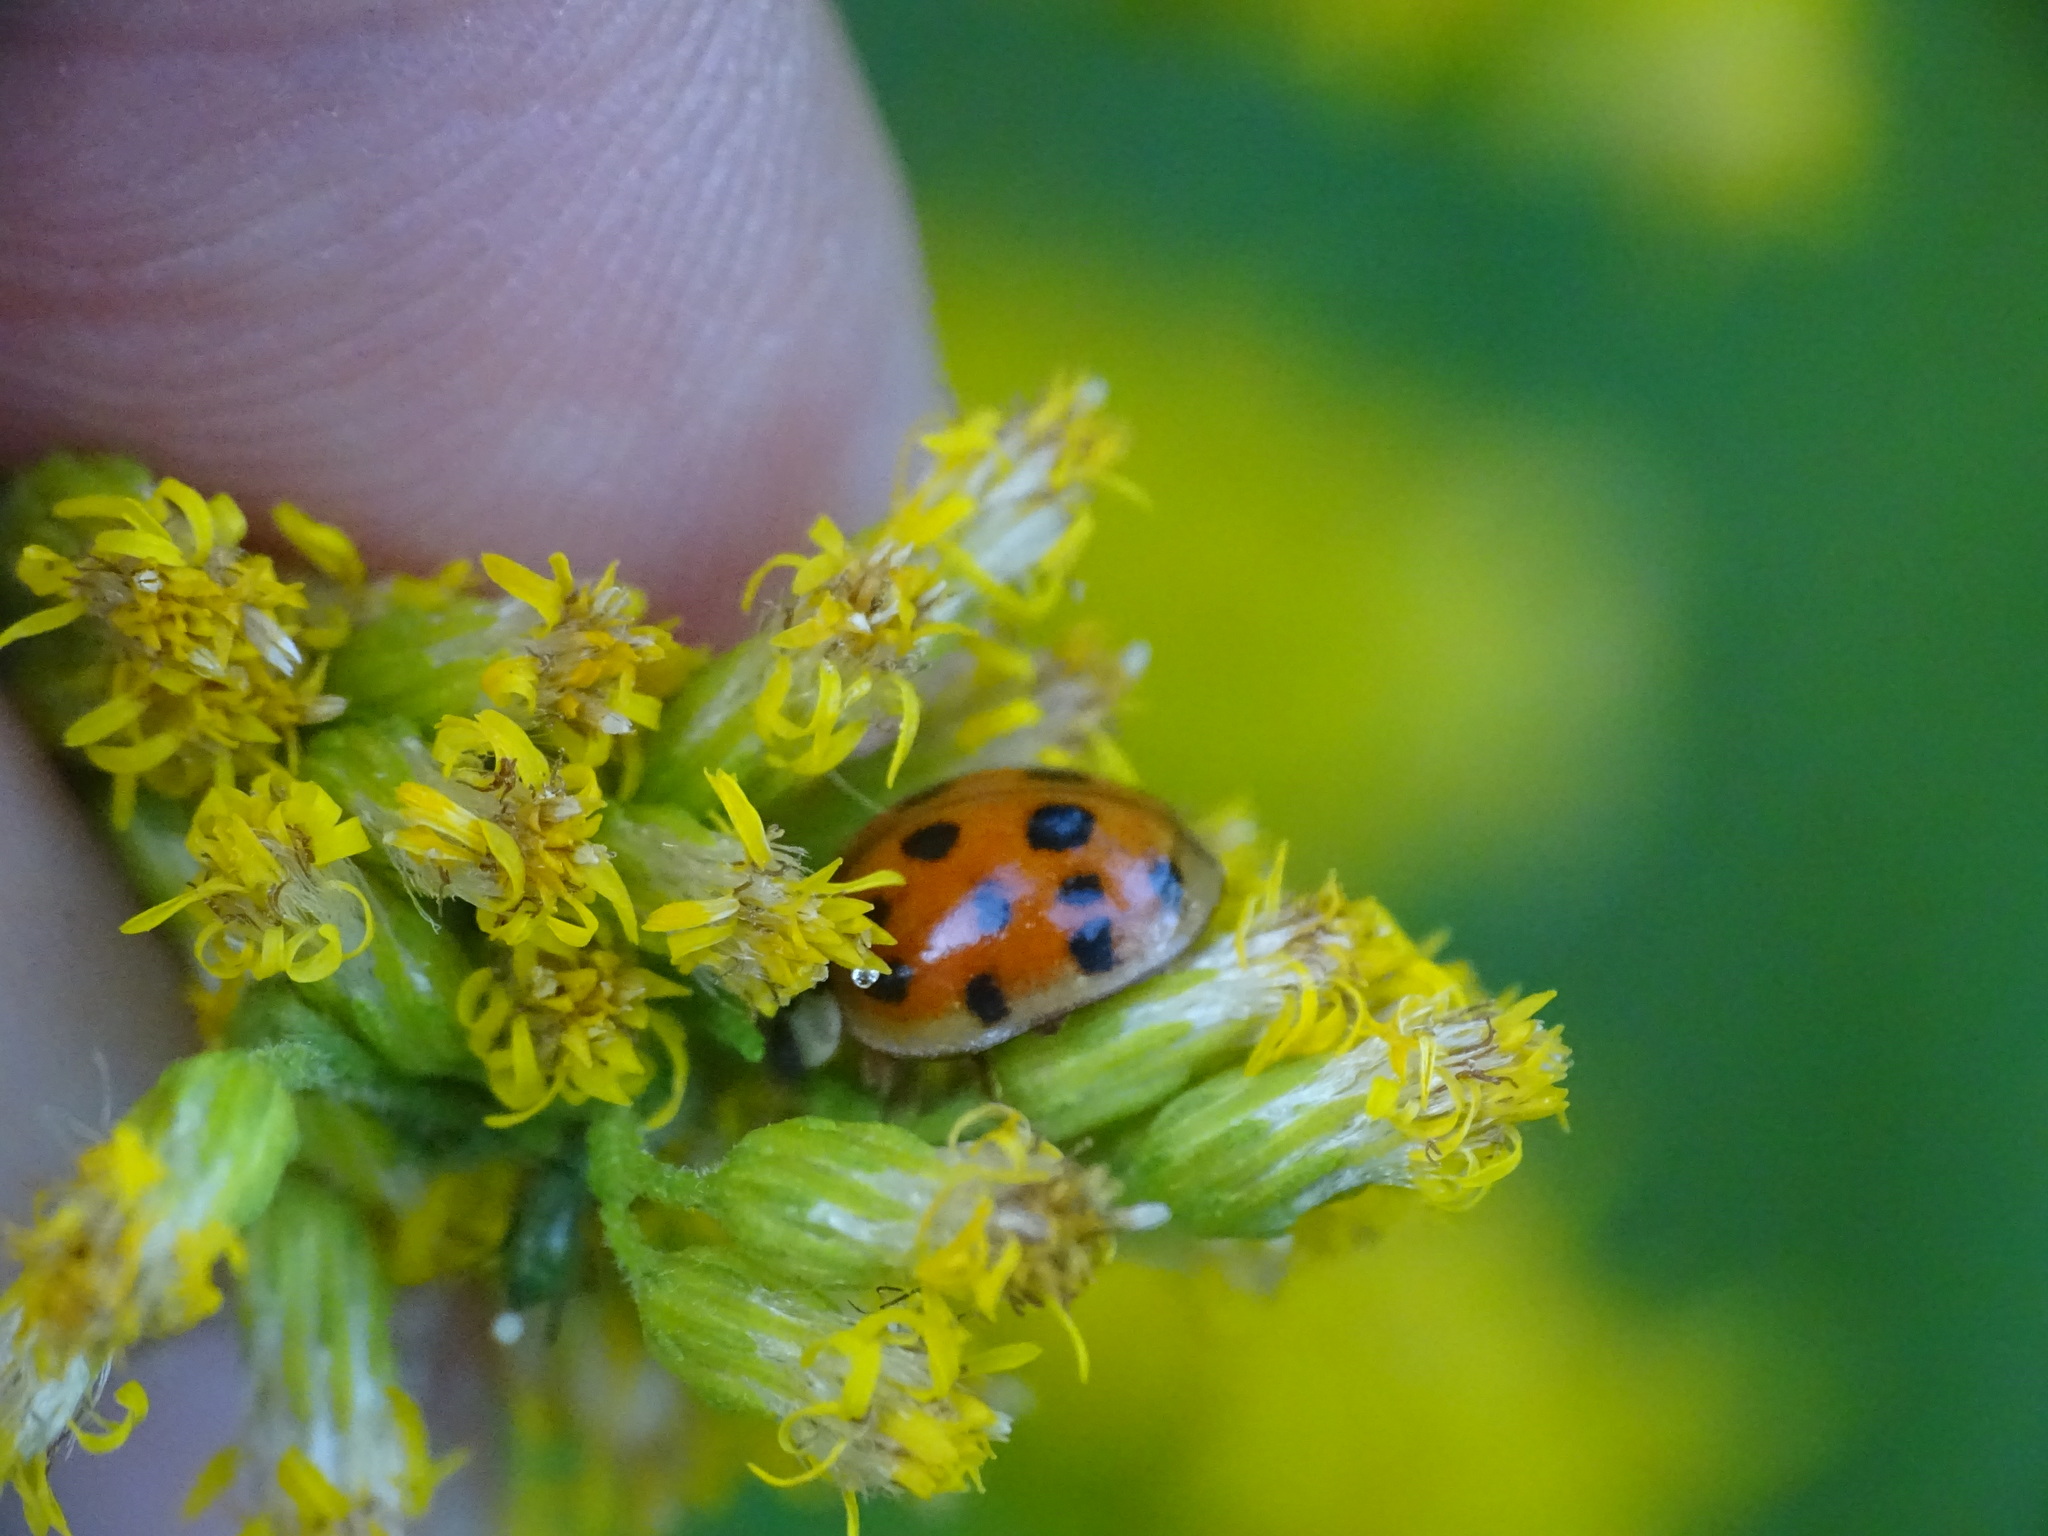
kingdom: Animalia
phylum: Arthropoda
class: Insecta
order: Coleoptera
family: Coccinellidae
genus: Harmonia
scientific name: Harmonia axyridis
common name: Harlequin ladybird
